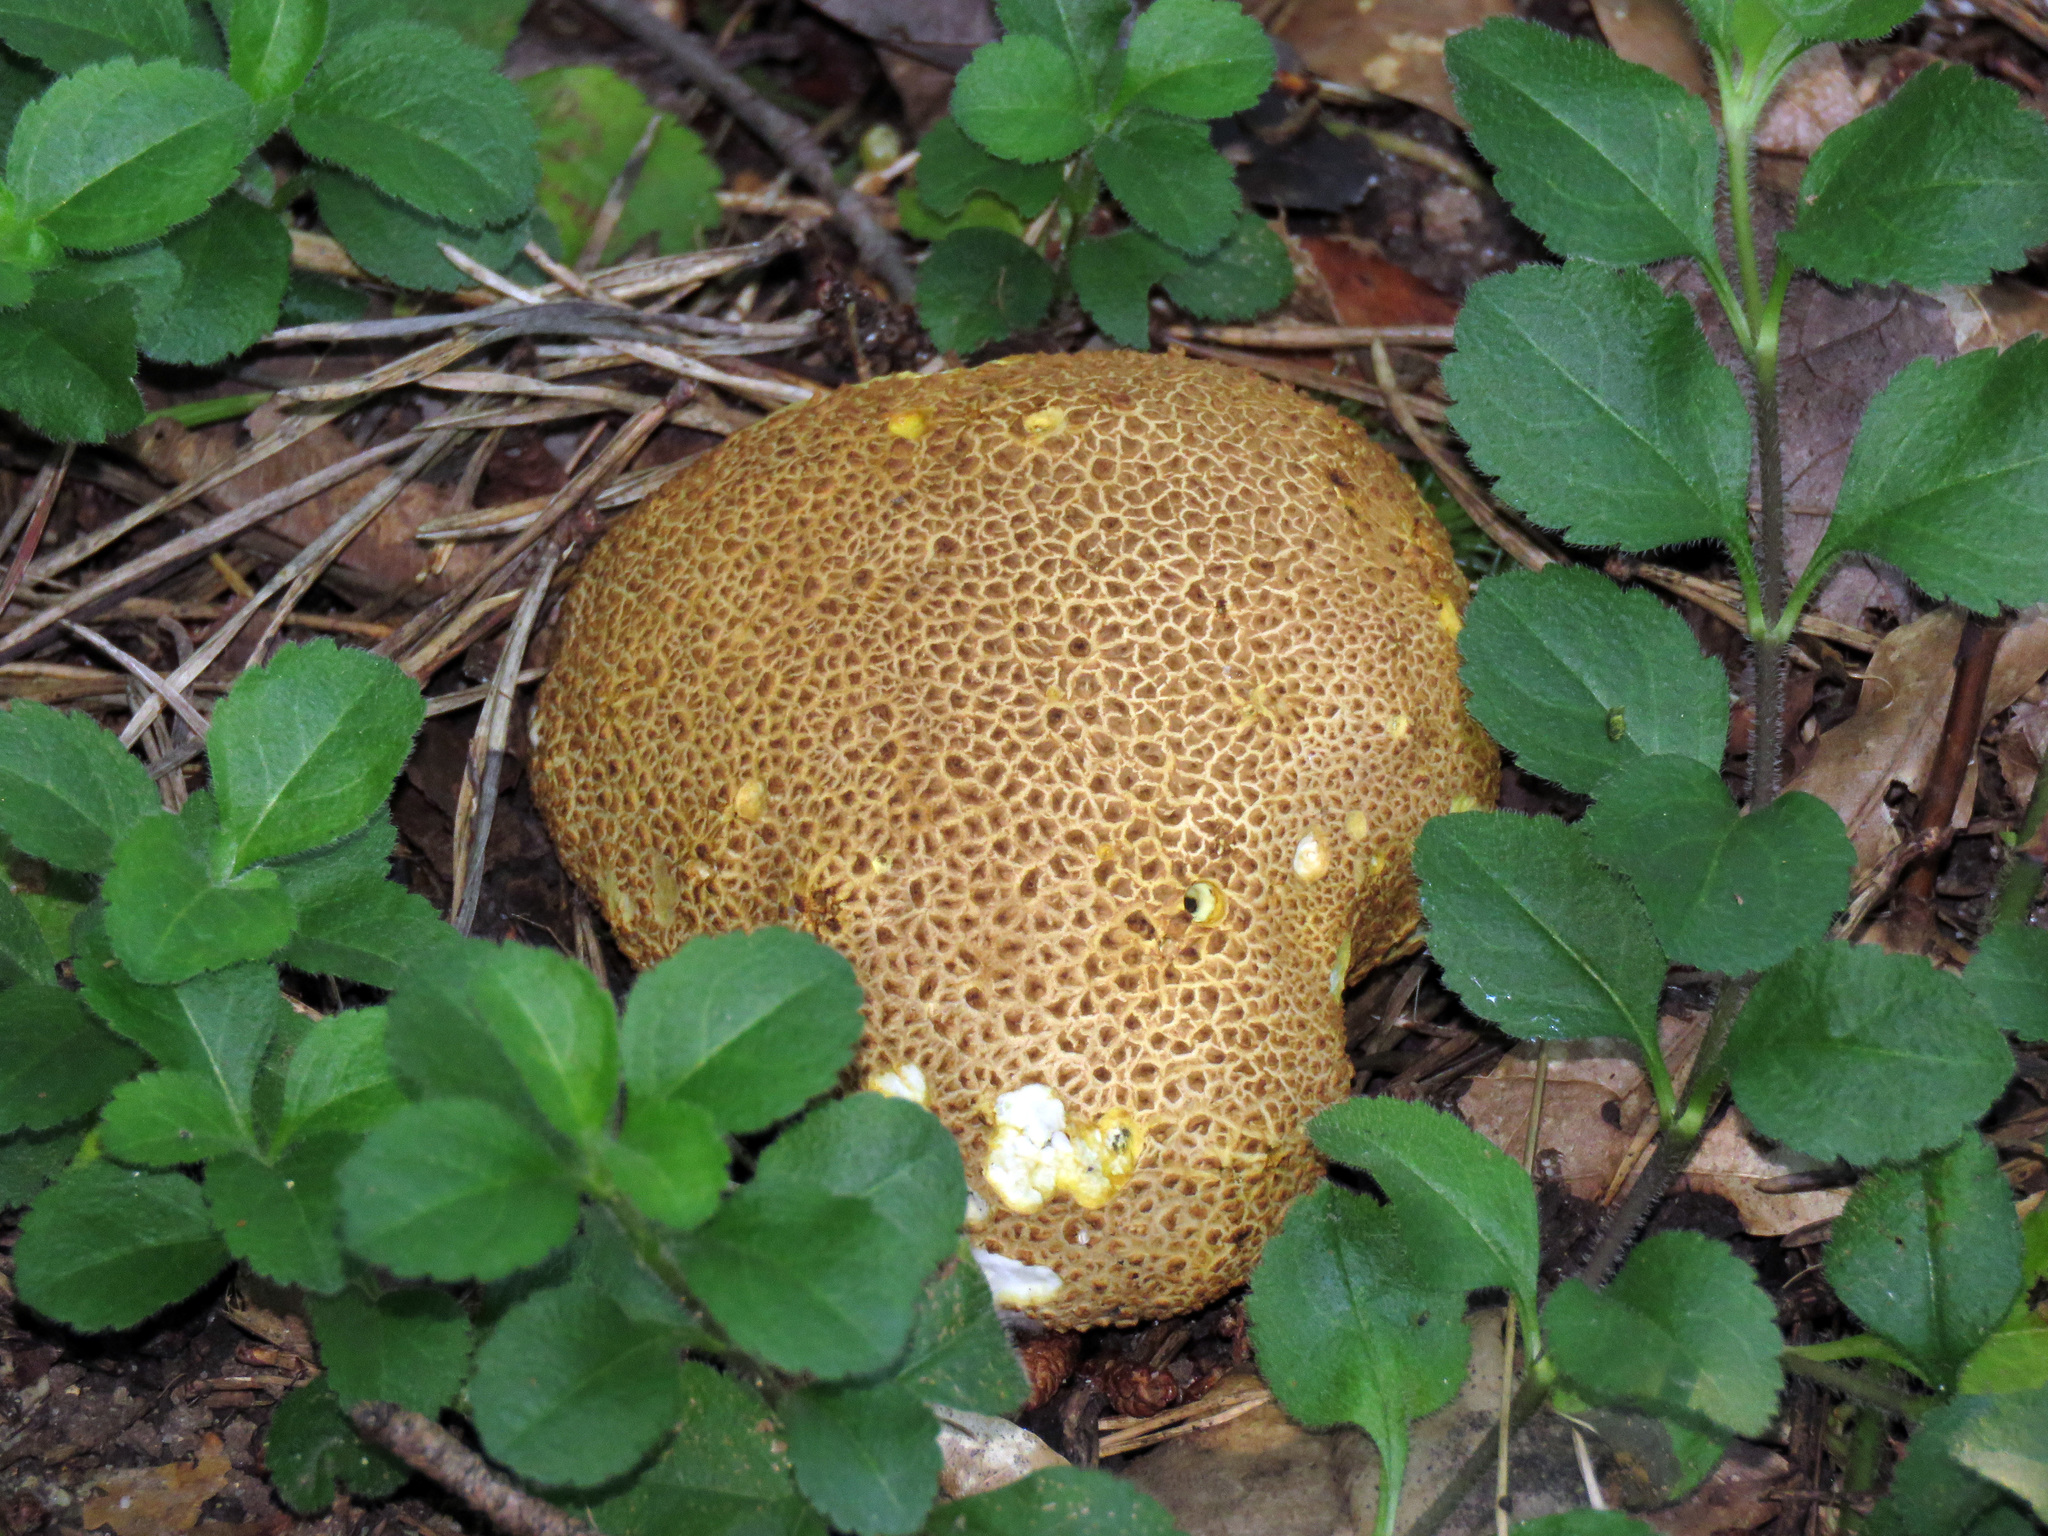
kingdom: Fungi
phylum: Basidiomycota
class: Agaricomycetes
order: Boletales
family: Sclerodermataceae
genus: Scleroderma
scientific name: Scleroderma citrinum
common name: Common earthball
